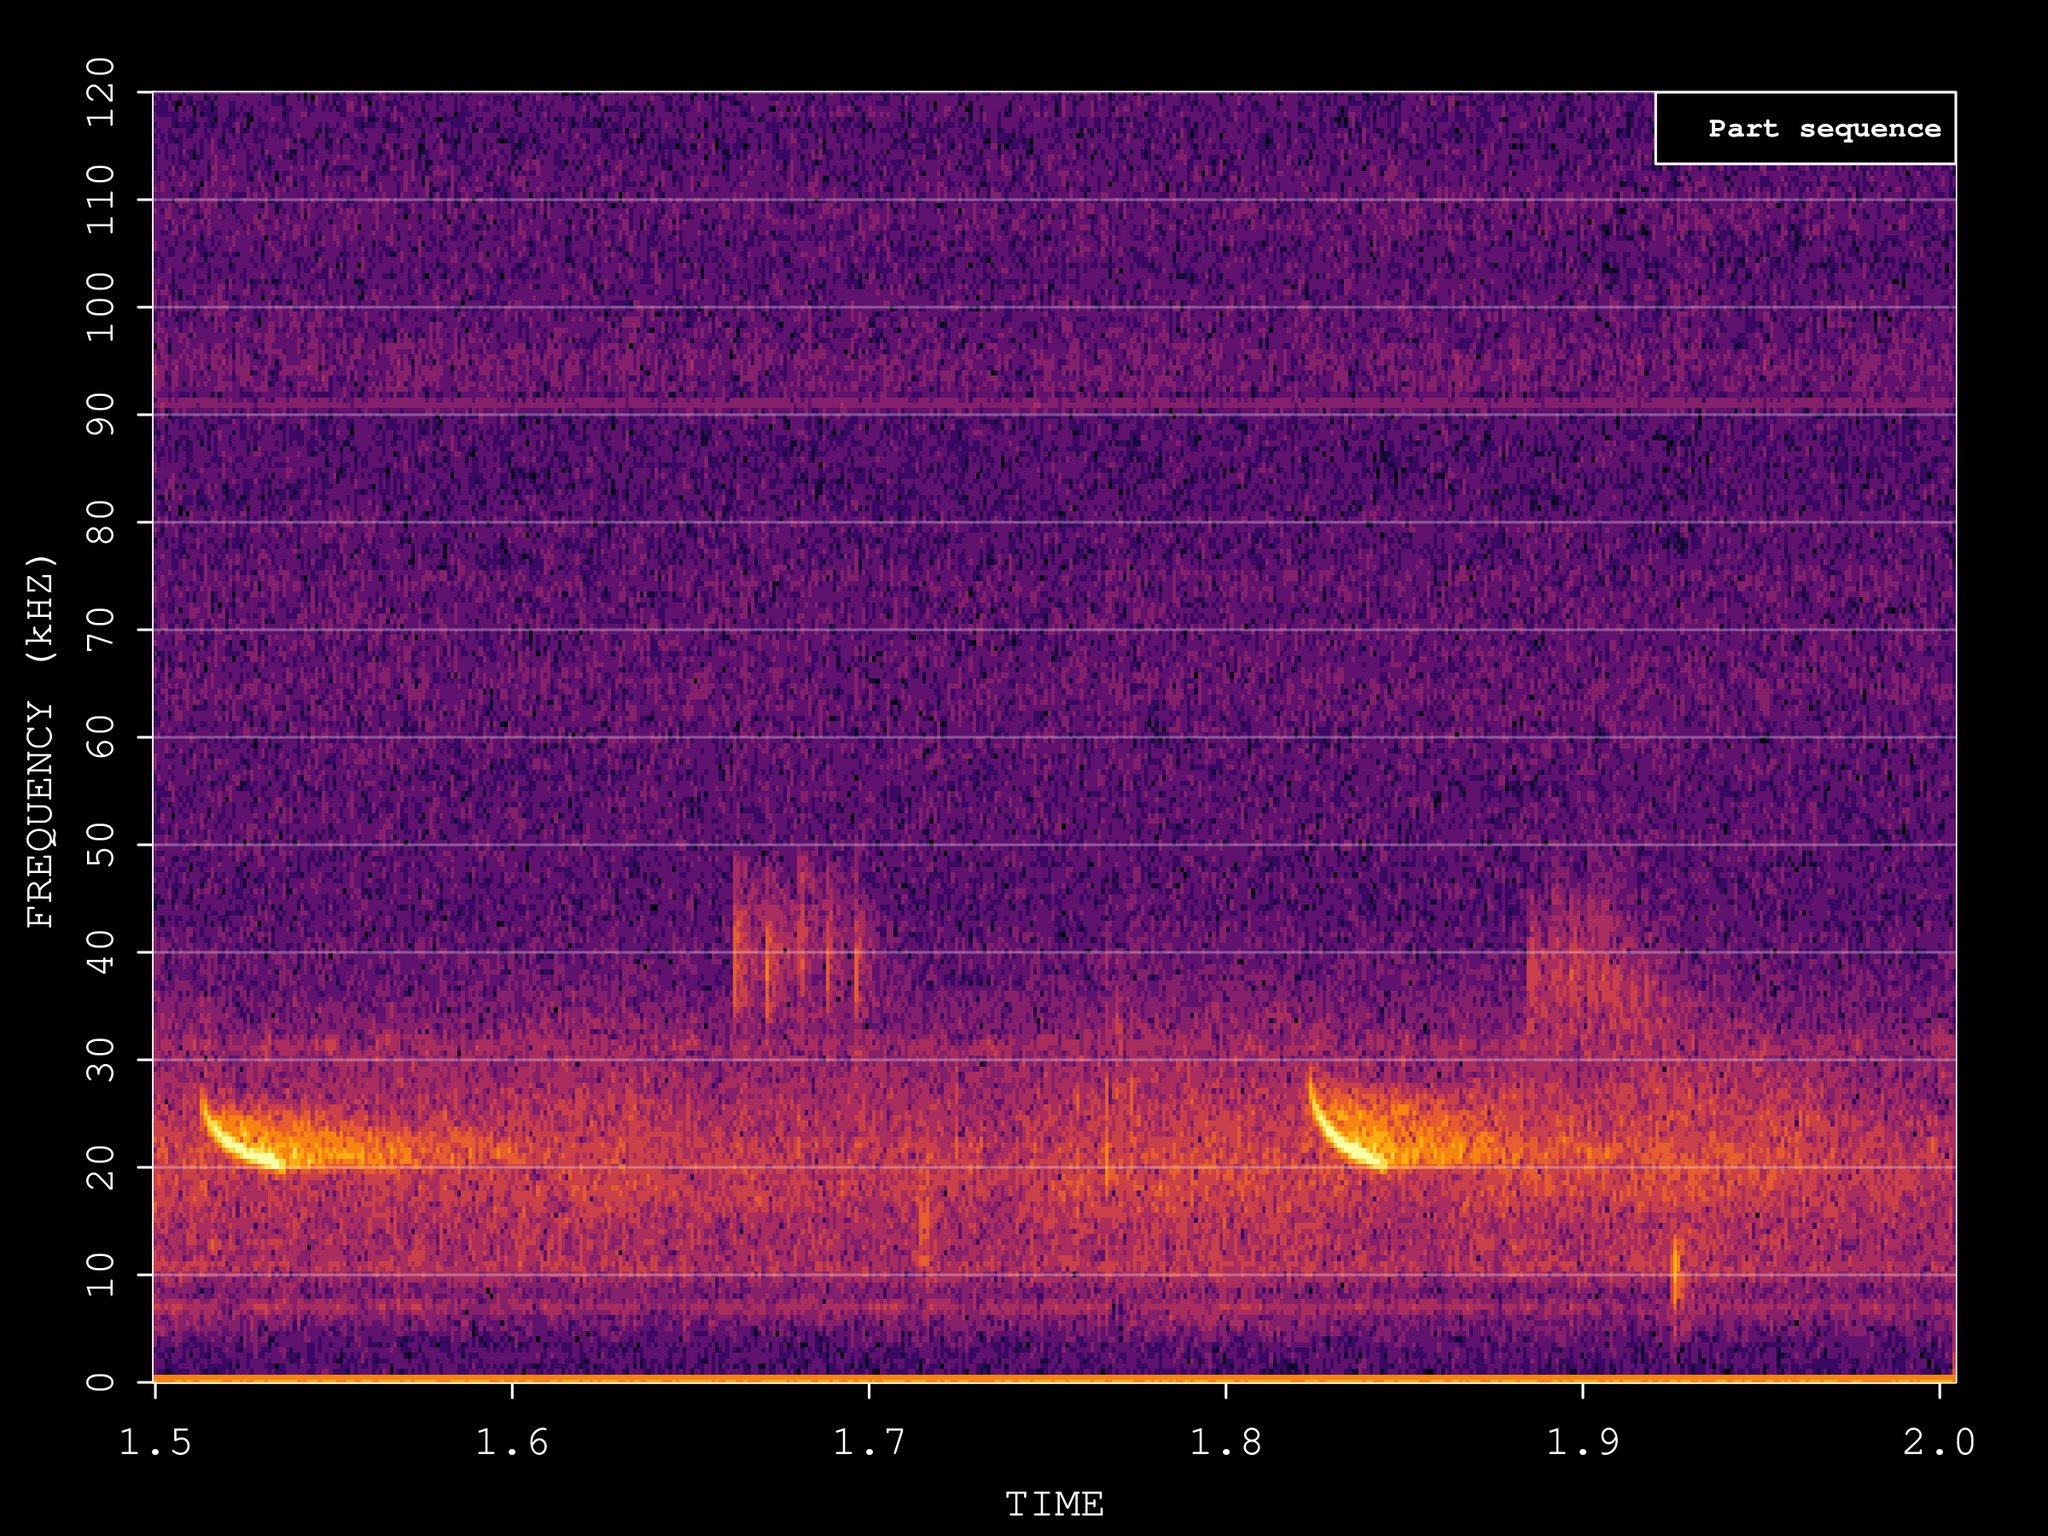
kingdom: Animalia
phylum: Chordata
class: Mammalia
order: Chiroptera
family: Vespertilionidae
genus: Nyctalus
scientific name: Nyctalus noctula
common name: Noctule
